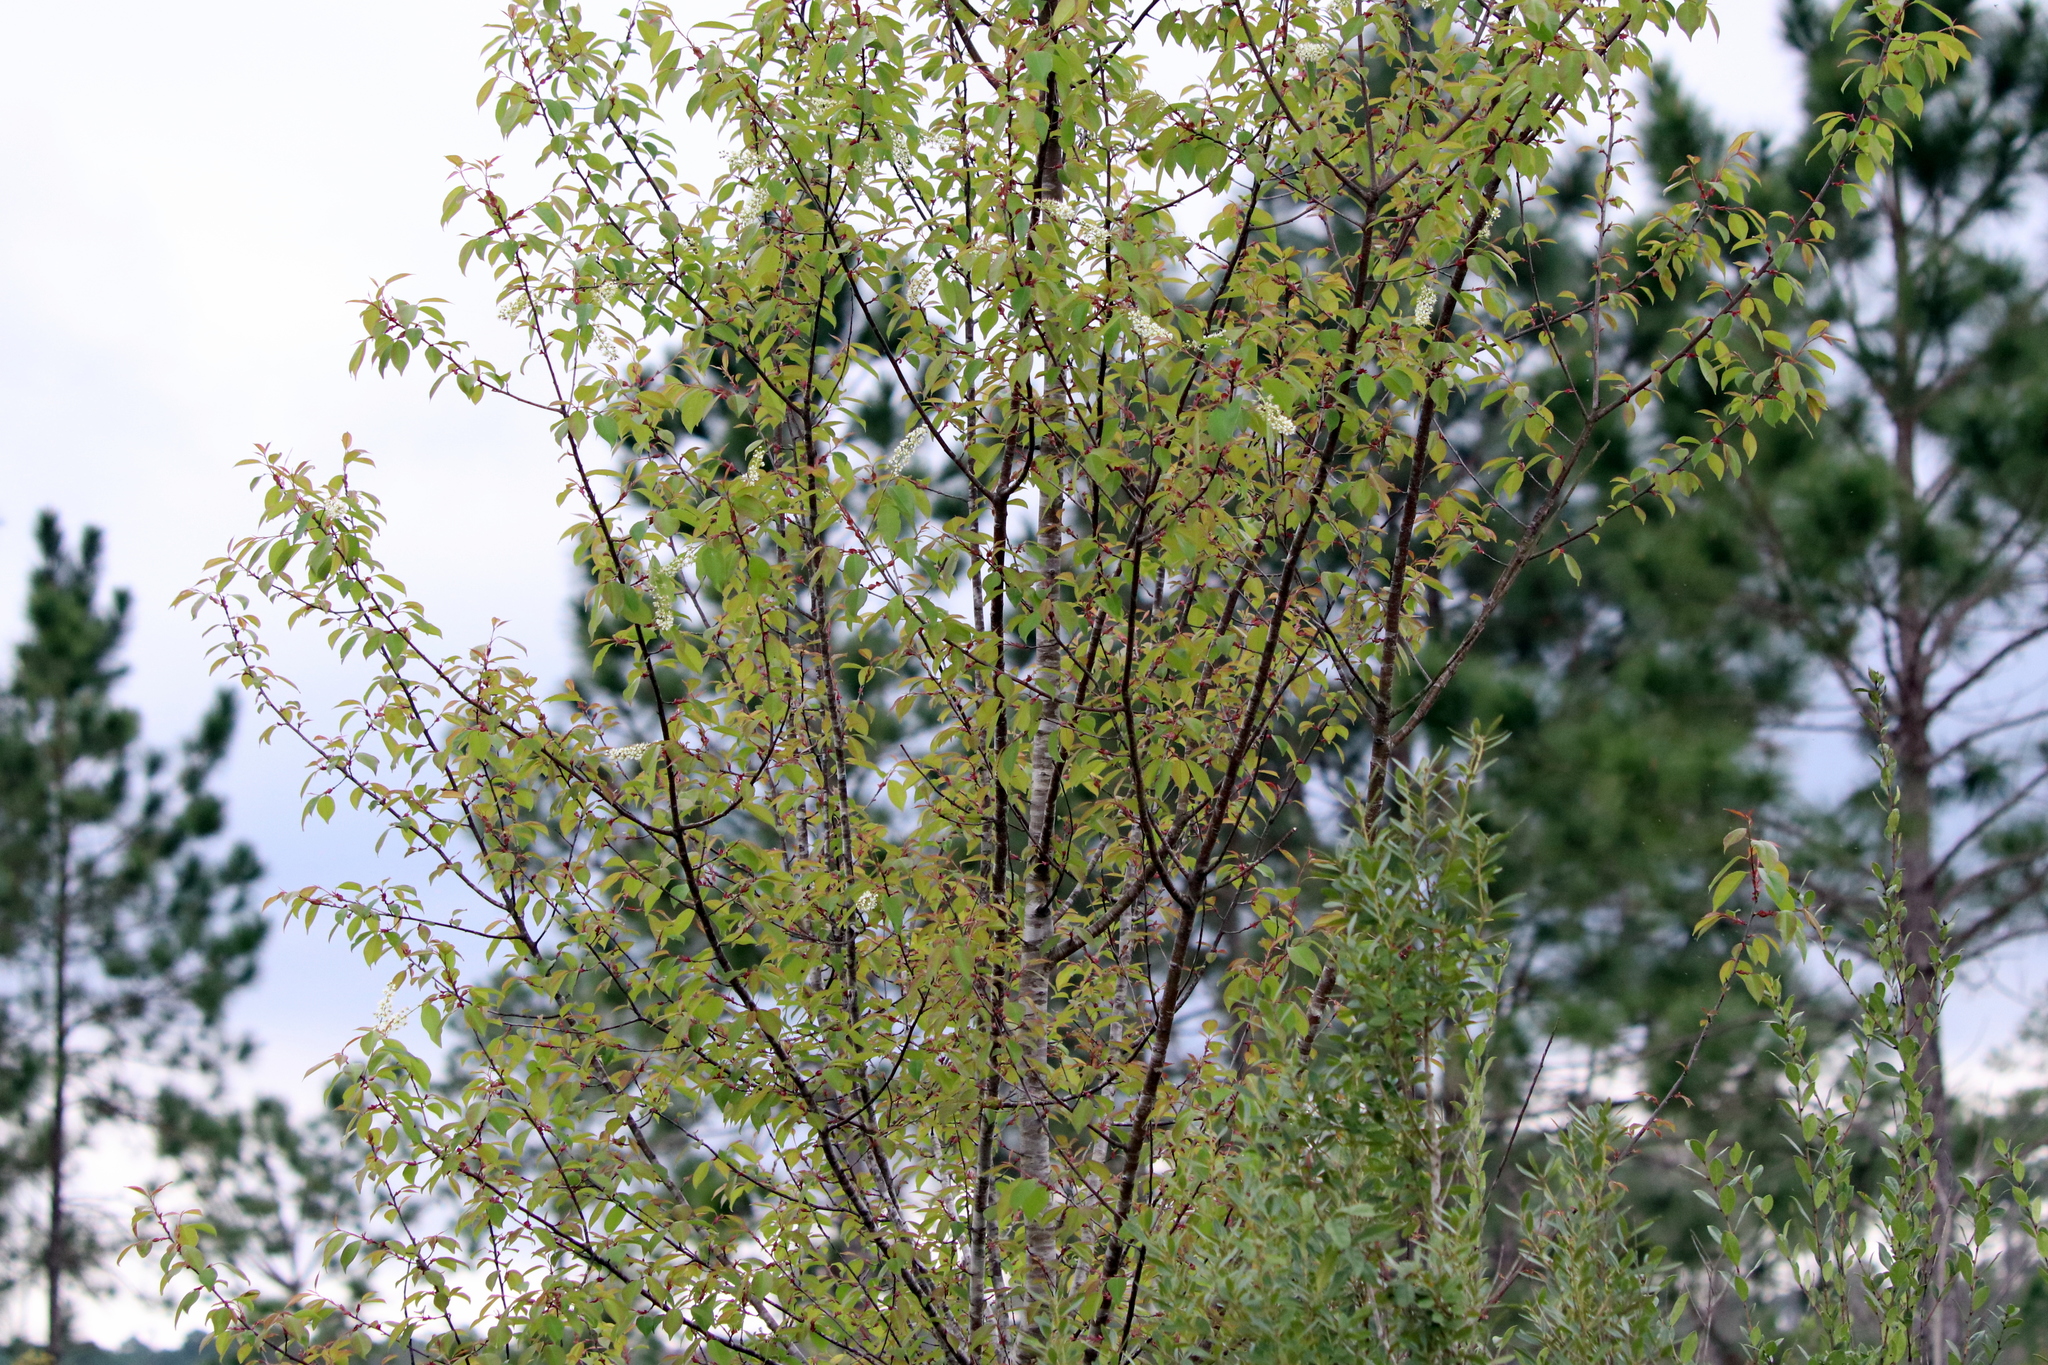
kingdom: Plantae
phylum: Tracheophyta
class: Magnoliopsida
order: Rosales
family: Rosaceae
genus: Prunus
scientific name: Prunus serotina
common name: Black cherry
